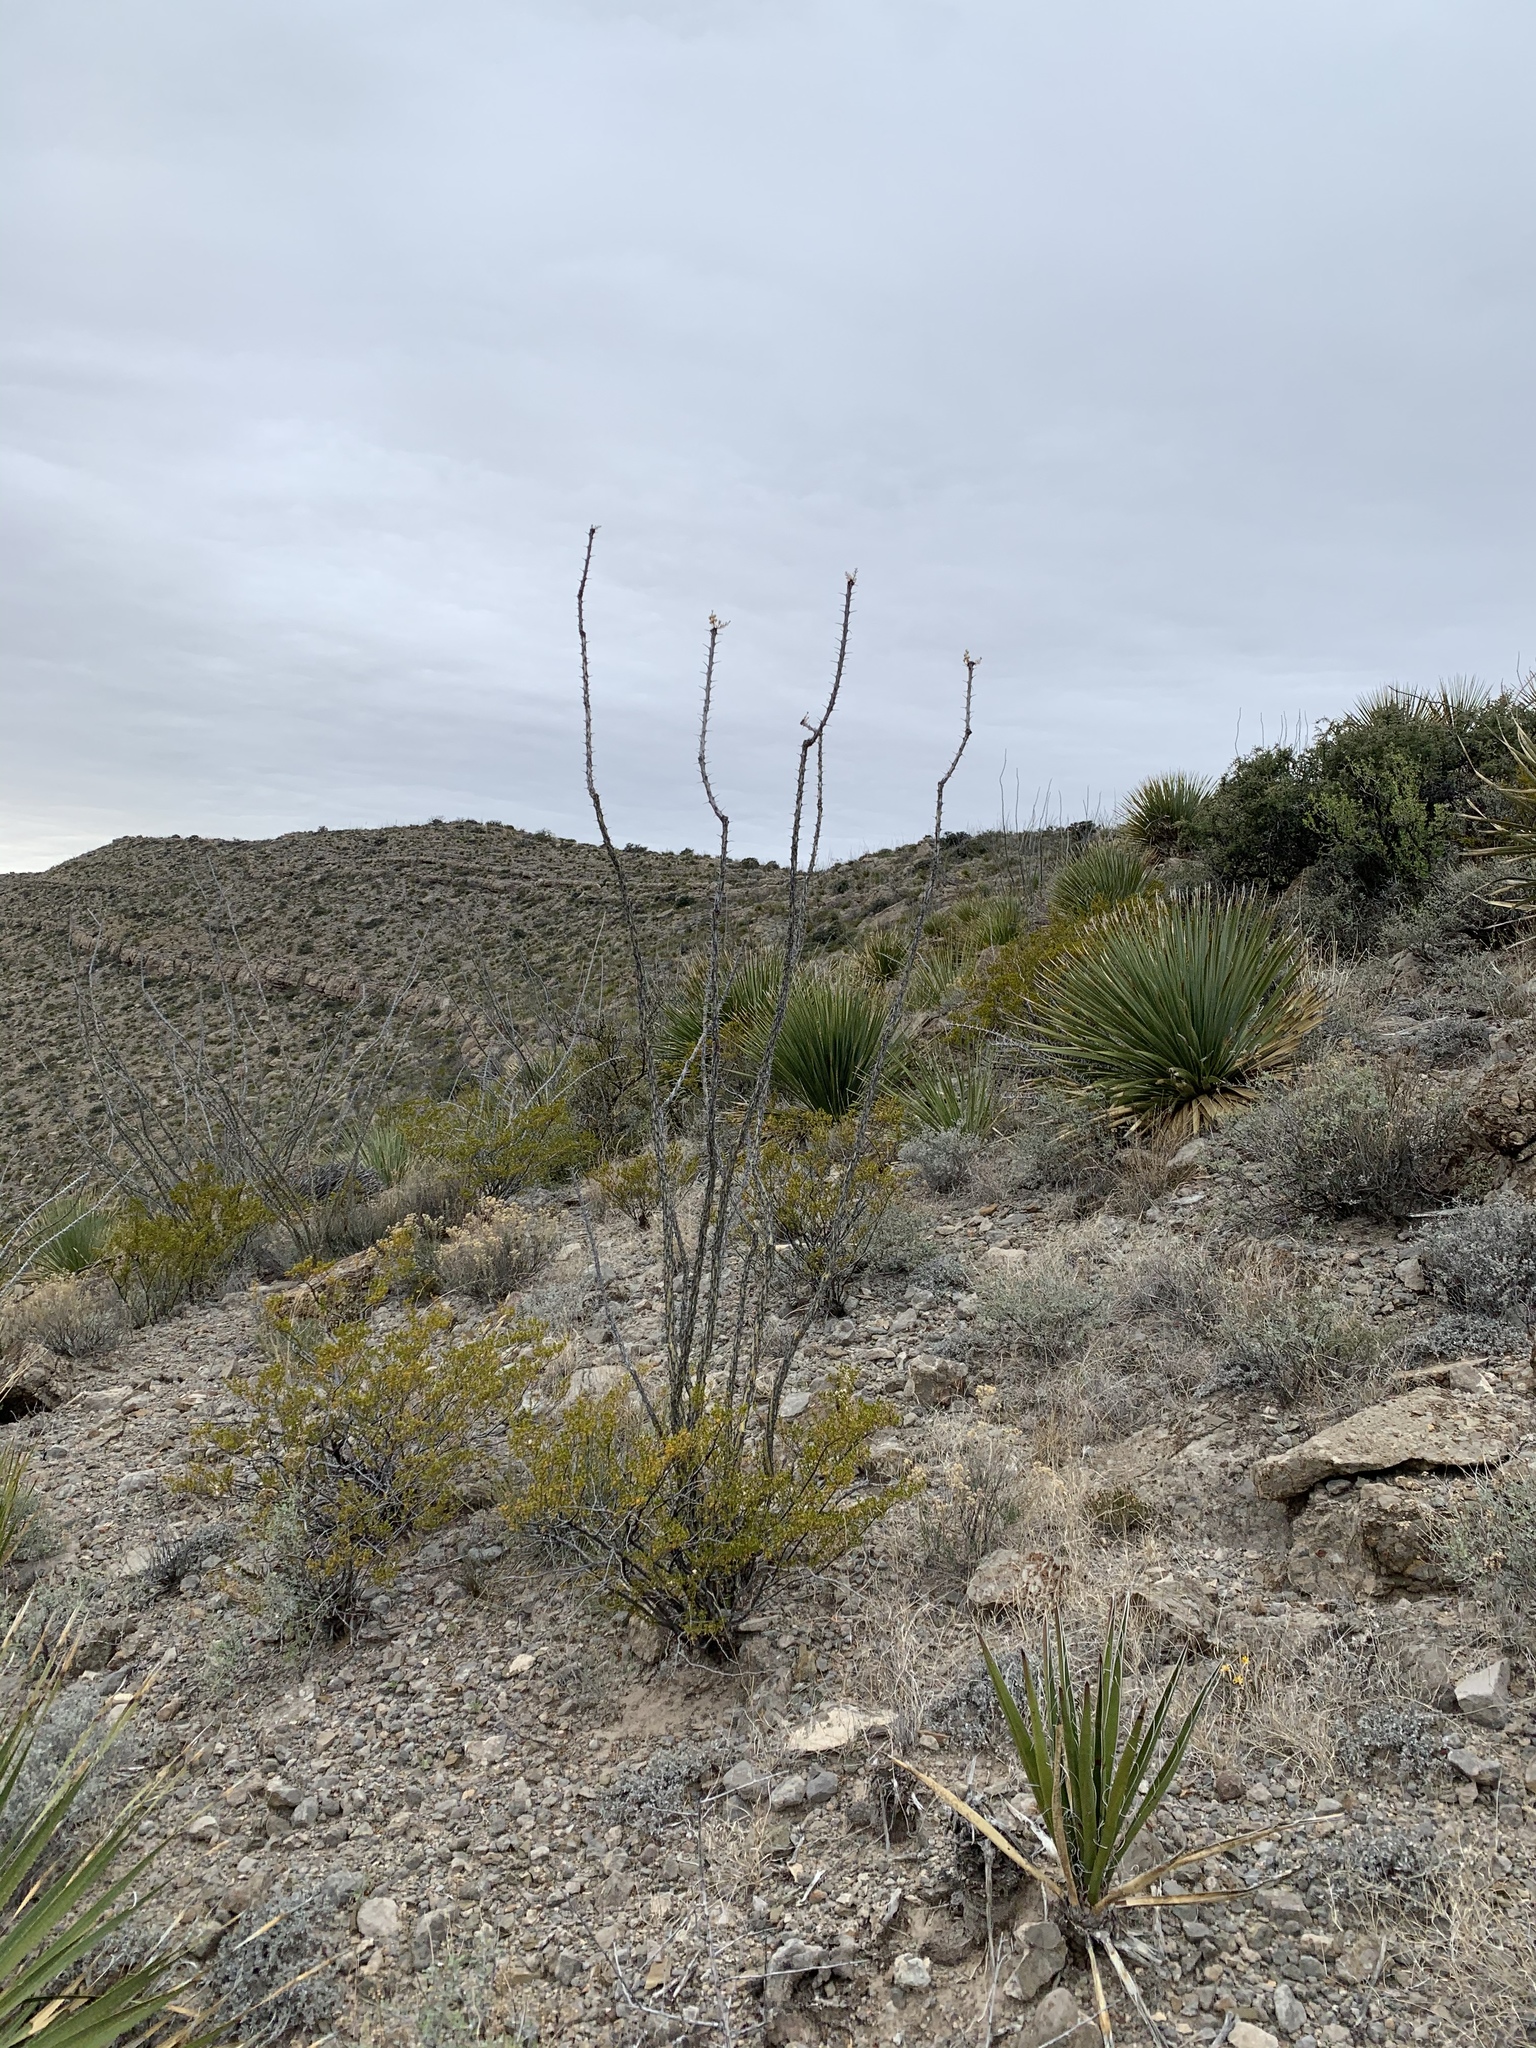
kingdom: Plantae
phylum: Tracheophyta
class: Magnoliopsida
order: Ericales
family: Fouquieriaceae
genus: Fouquieria
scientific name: Fouquieria splendens
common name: Vine-cactus
